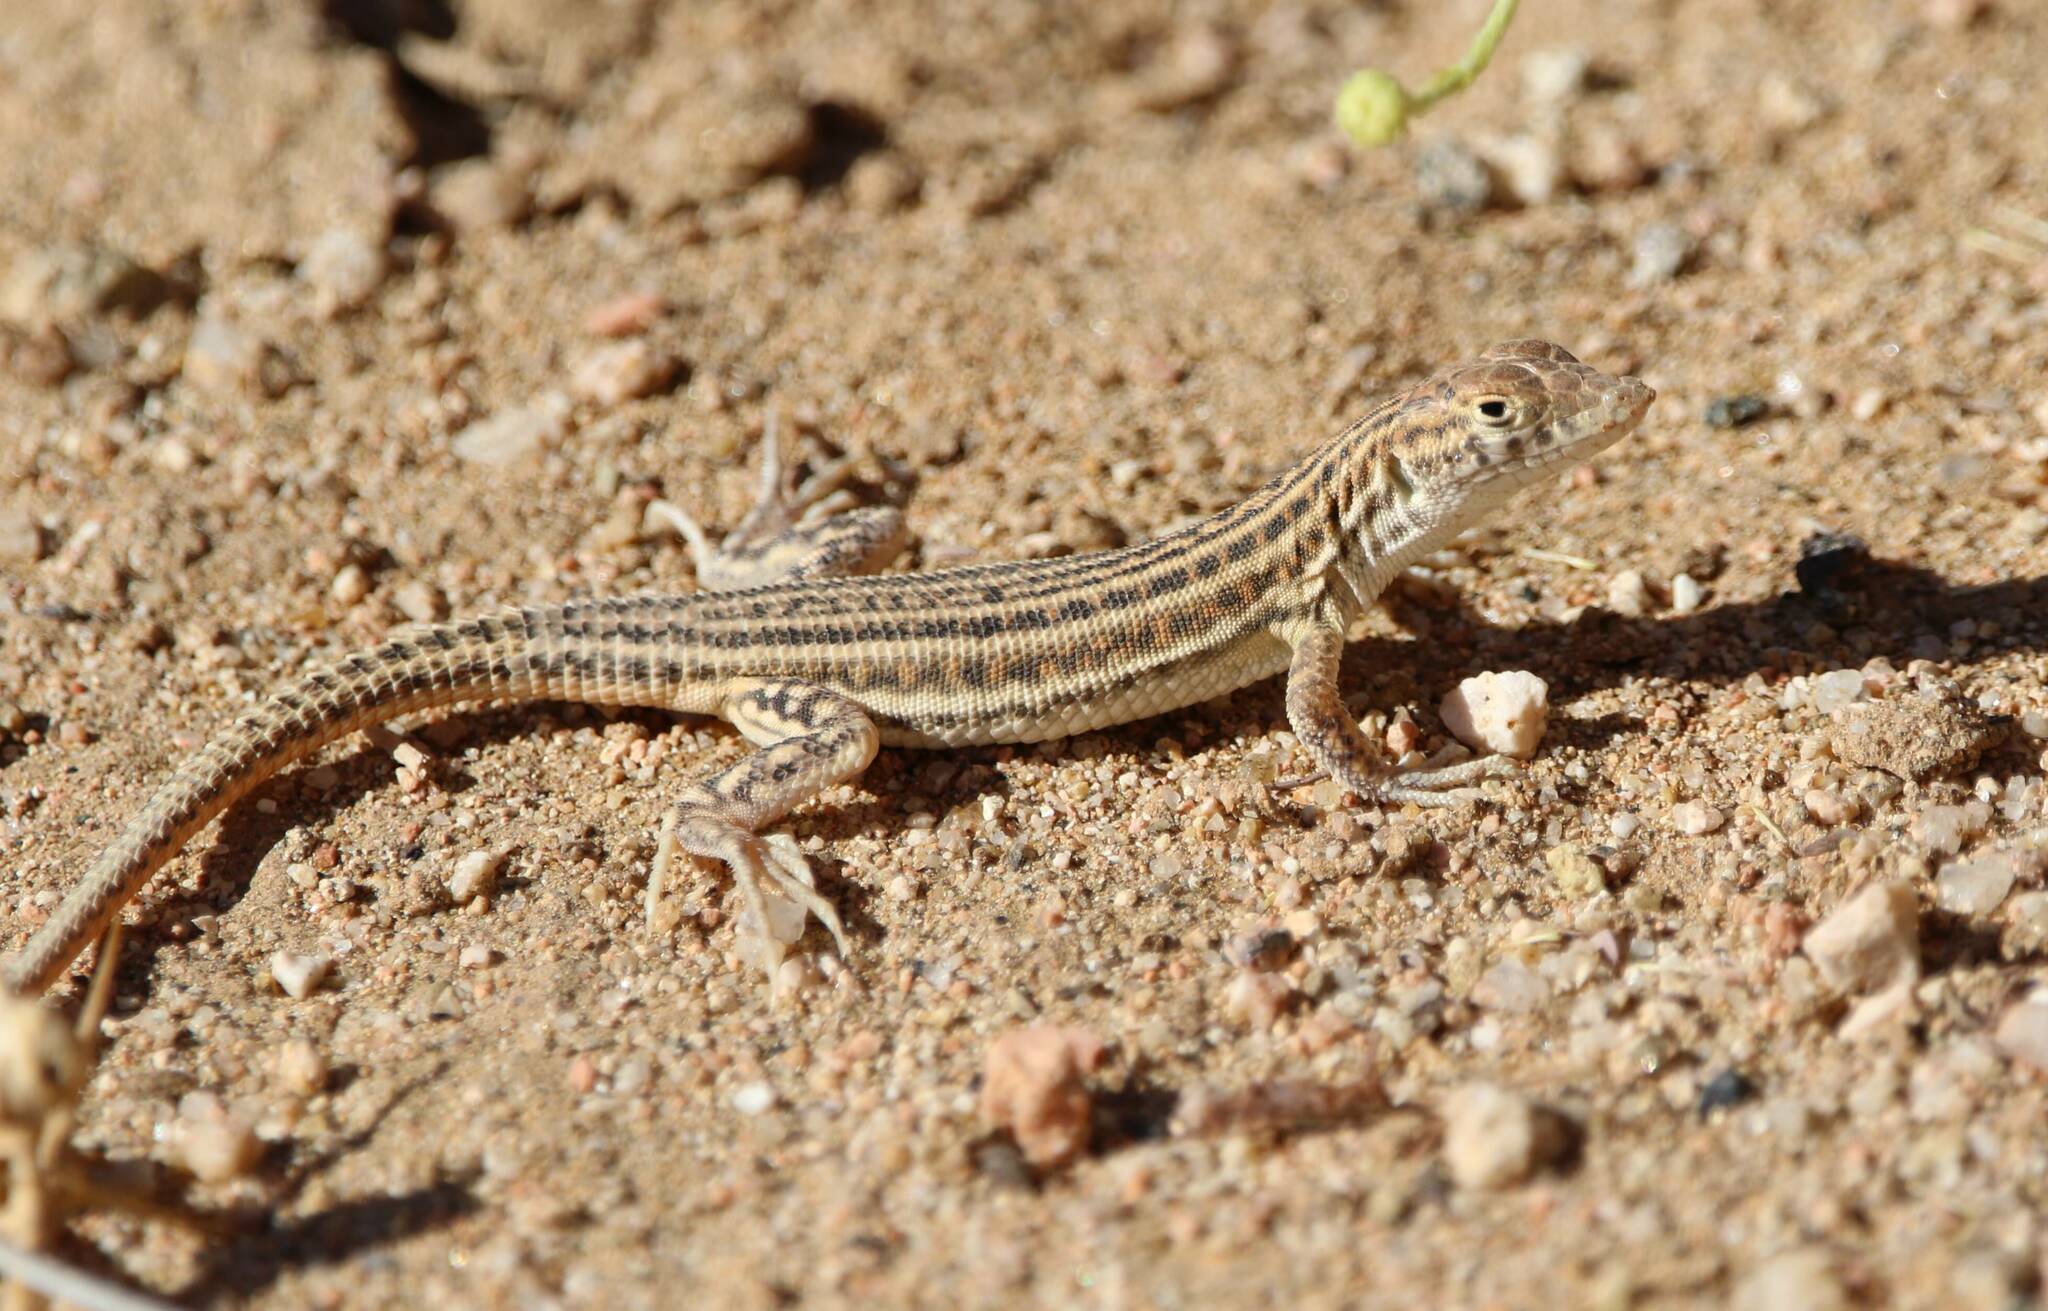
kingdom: Animalia
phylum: Chordata
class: Squamata
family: Lacertidae
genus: Acanthodactylus
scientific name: Acanthodactylus boskianus
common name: Bosc’s fringe-toed lizard
